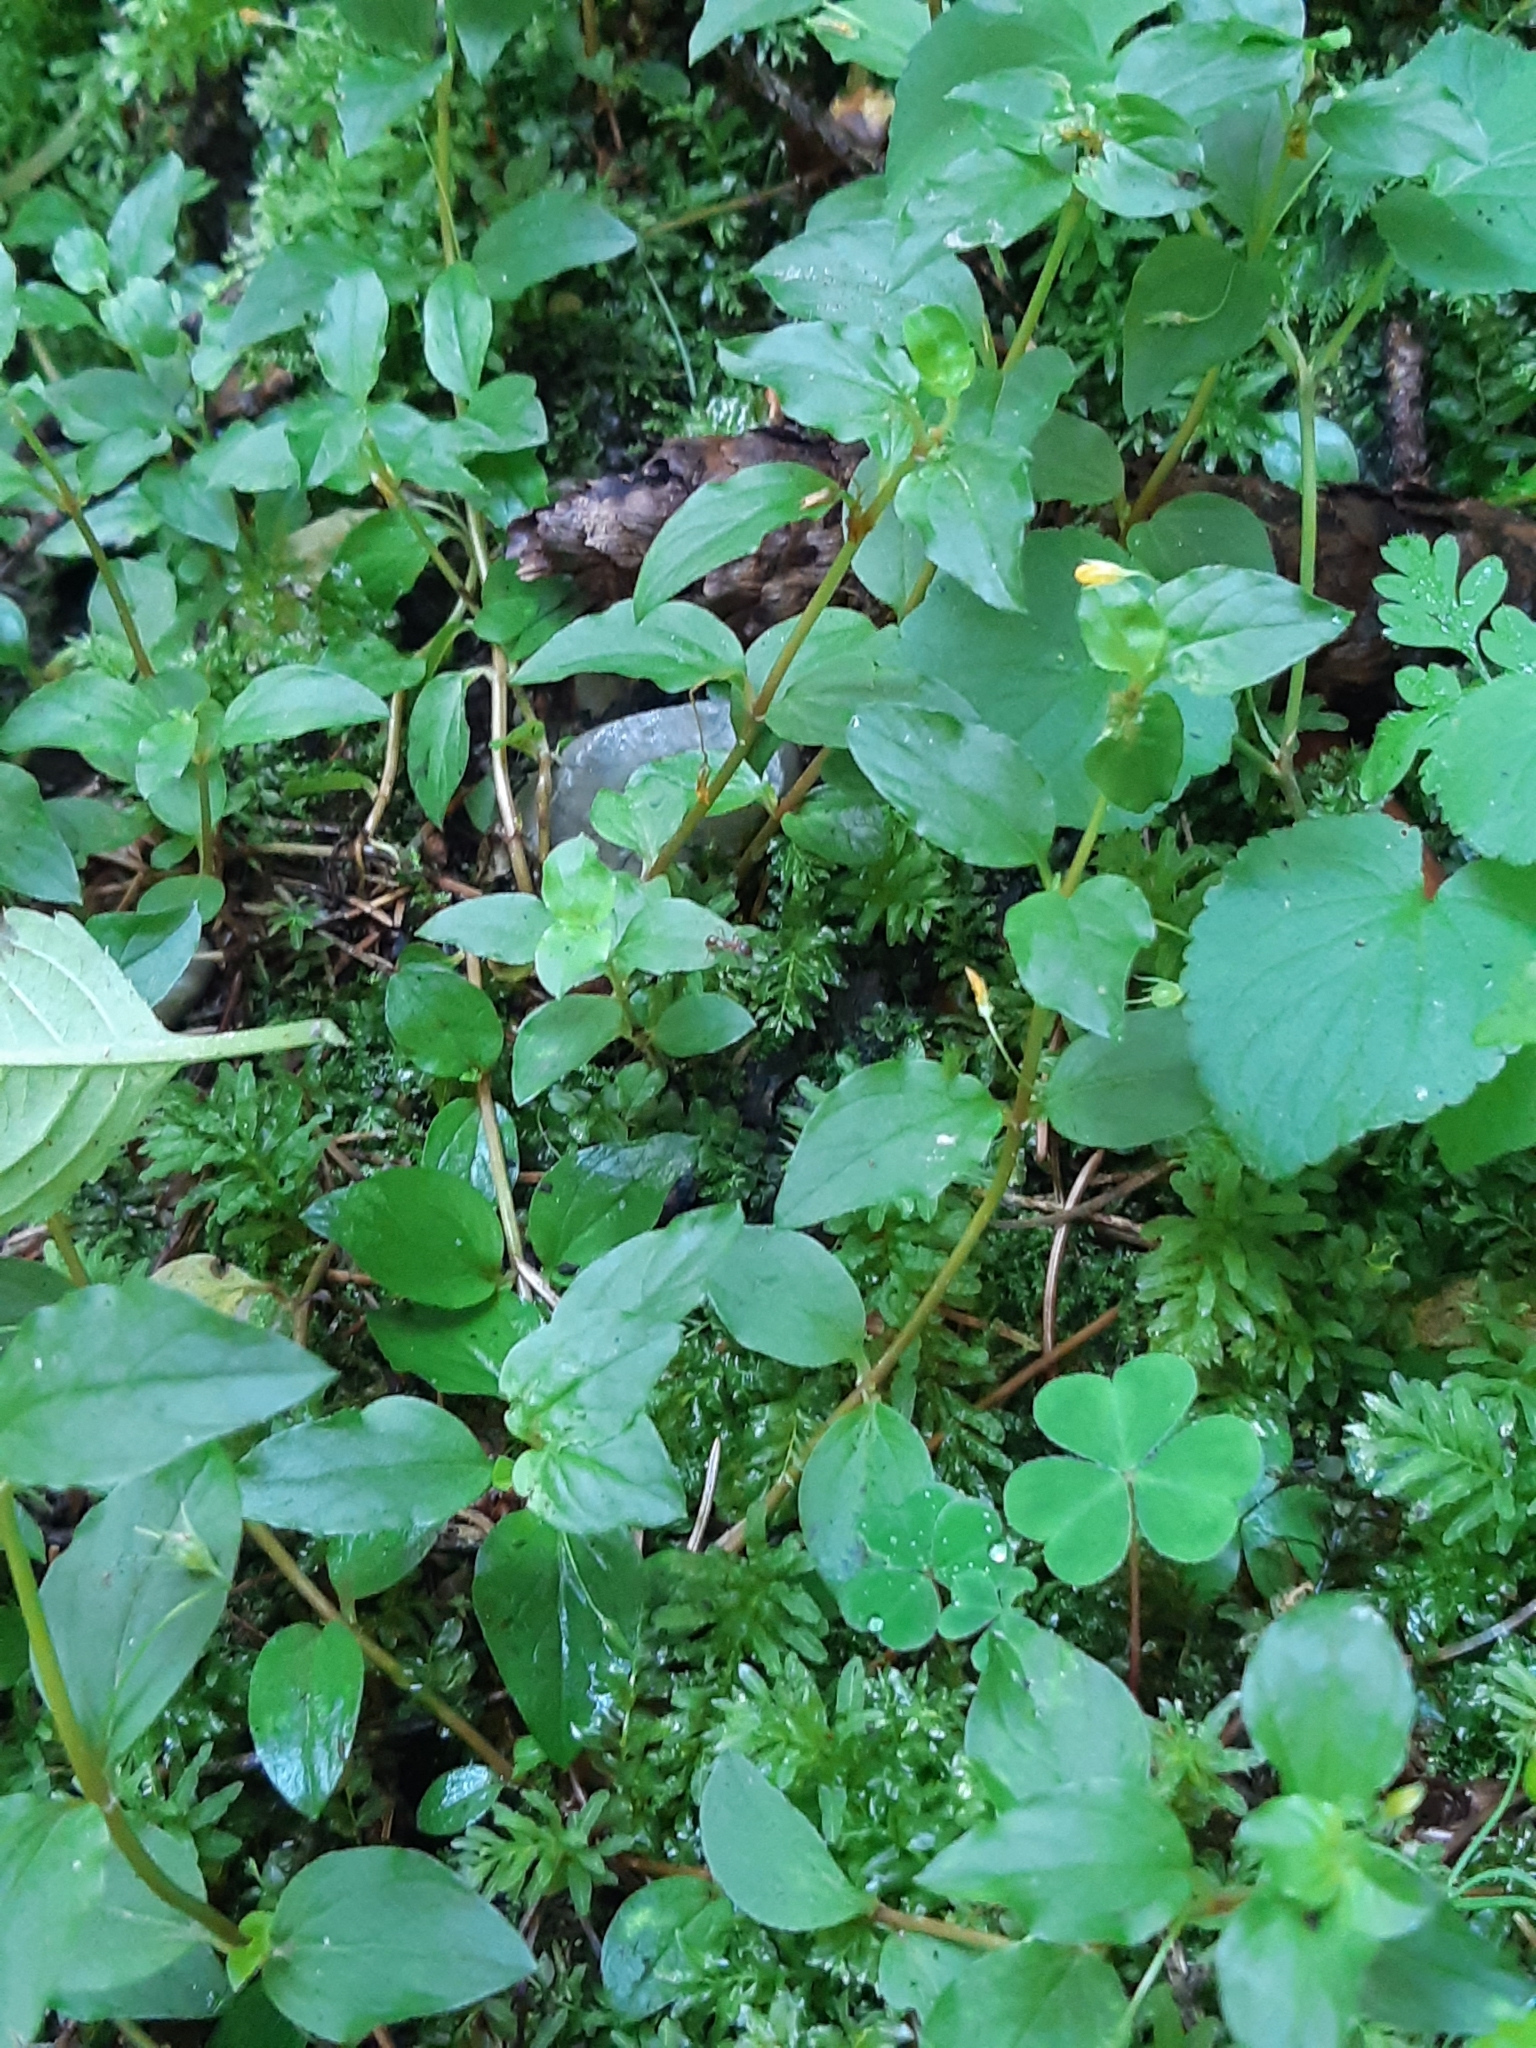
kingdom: Plantae
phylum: Tracheophyta
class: Magnoliopsida
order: Ericales
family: Primulaceae
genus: Lysimachia
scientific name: Lysimachia nemorum
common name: Yellow pimpernel
